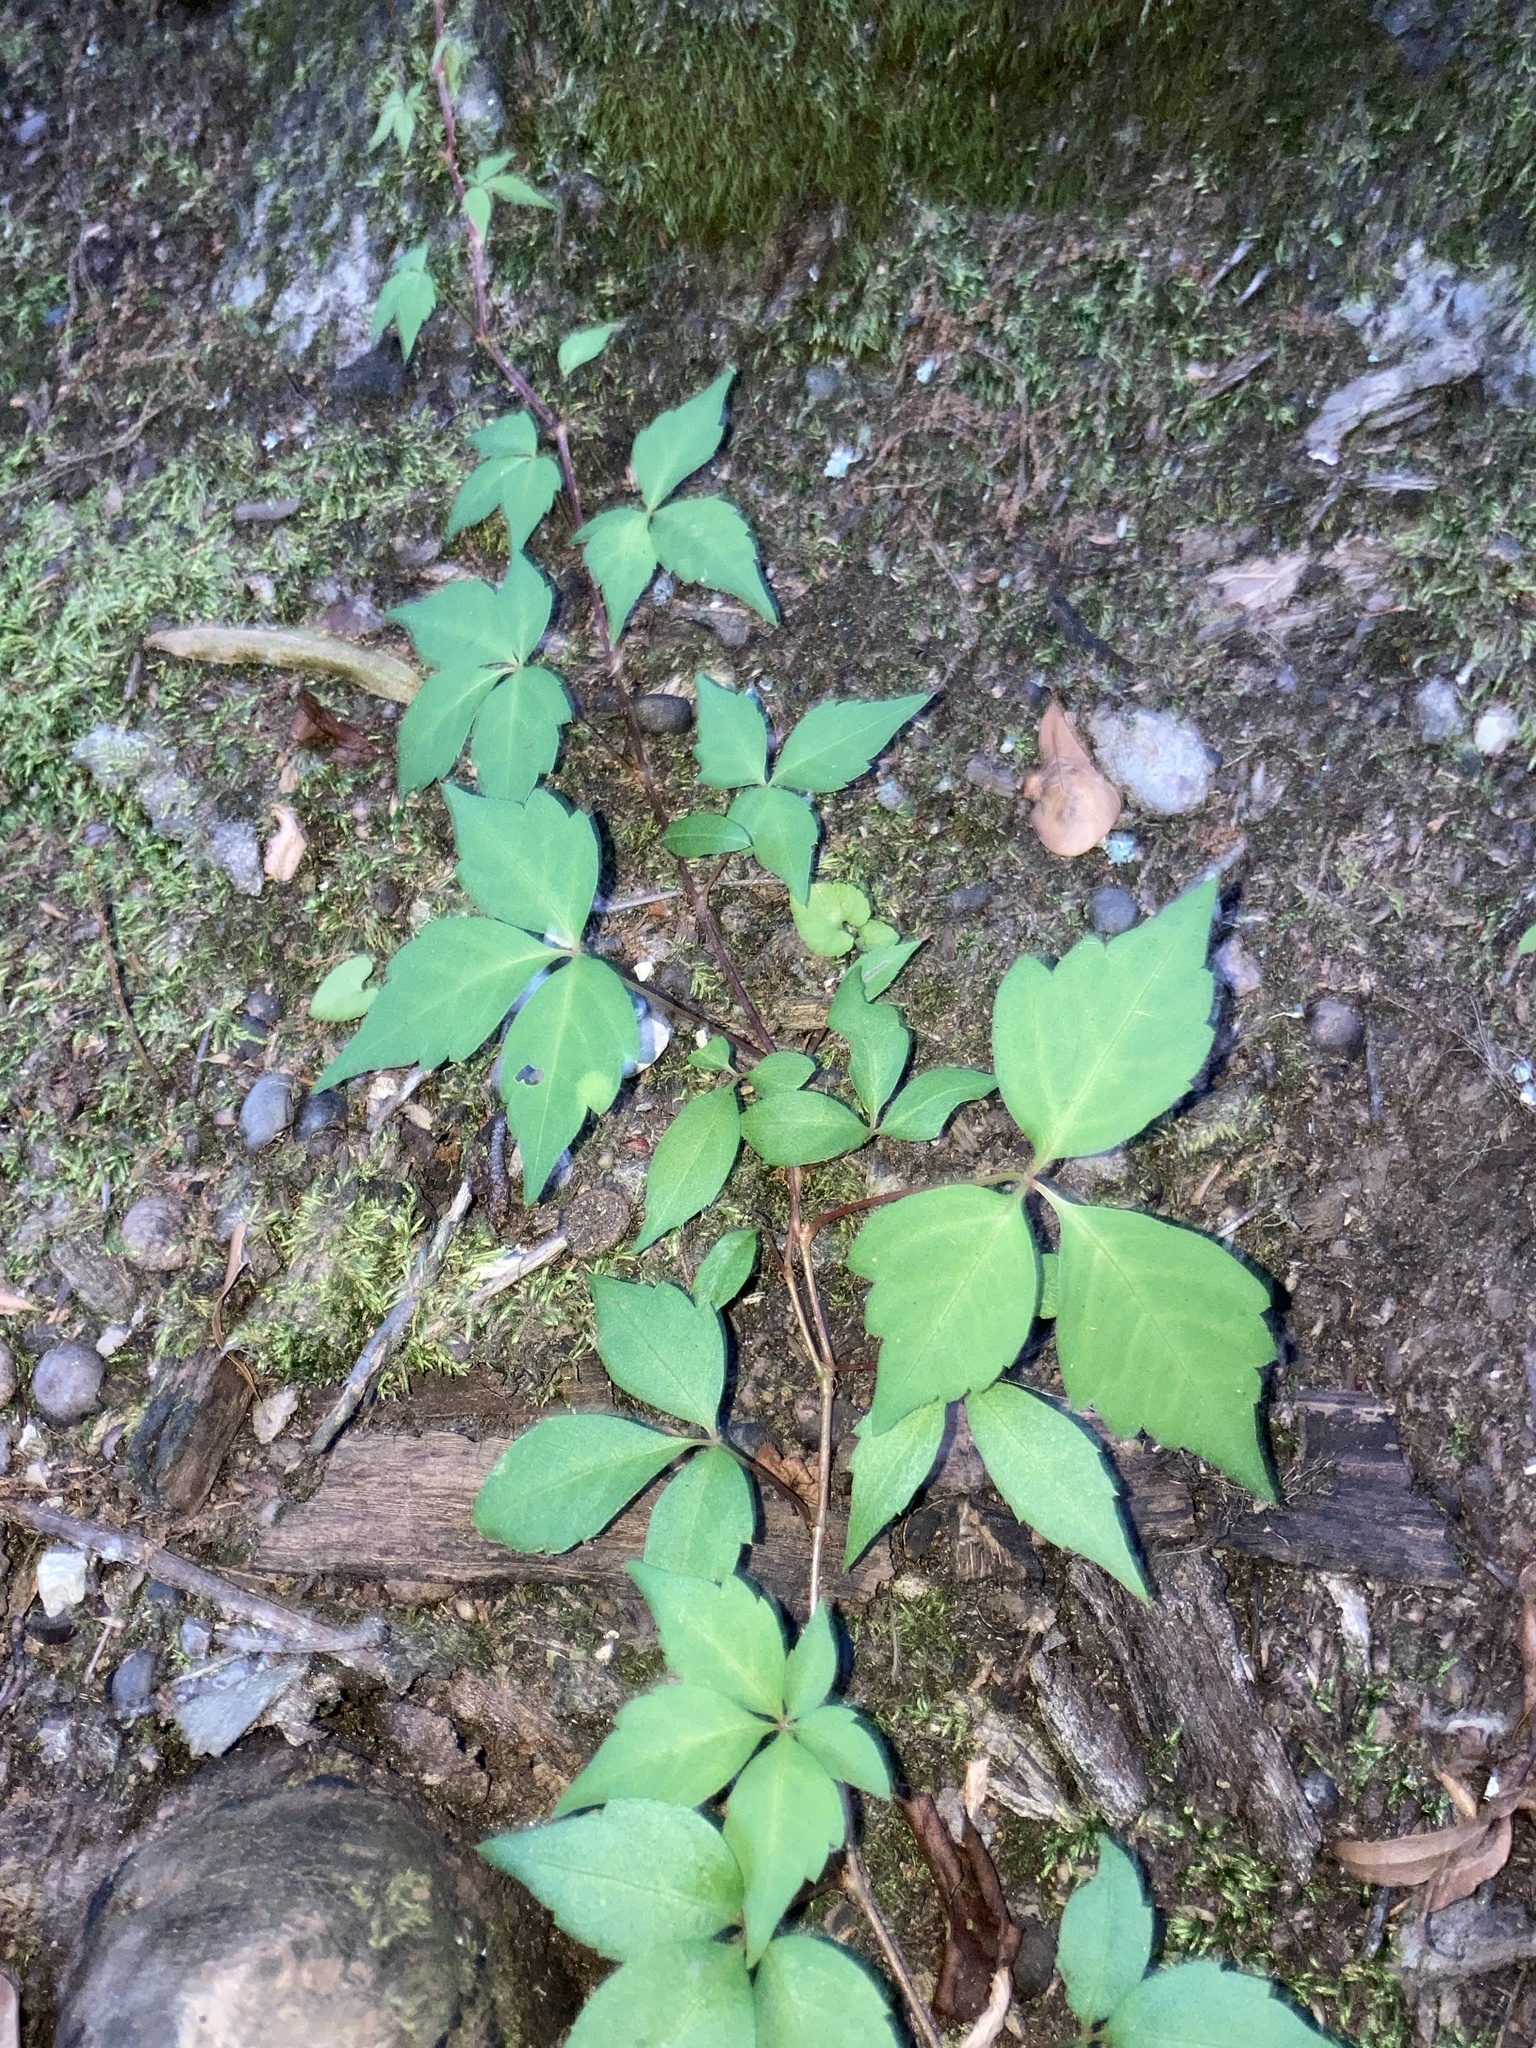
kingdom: Plantae
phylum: Tracheophyta
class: Magnoliopsida
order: Vitales
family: Vitaceae
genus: Parthenocissus
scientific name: Parthenocissus quinquefolia
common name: Virginia-creeper
